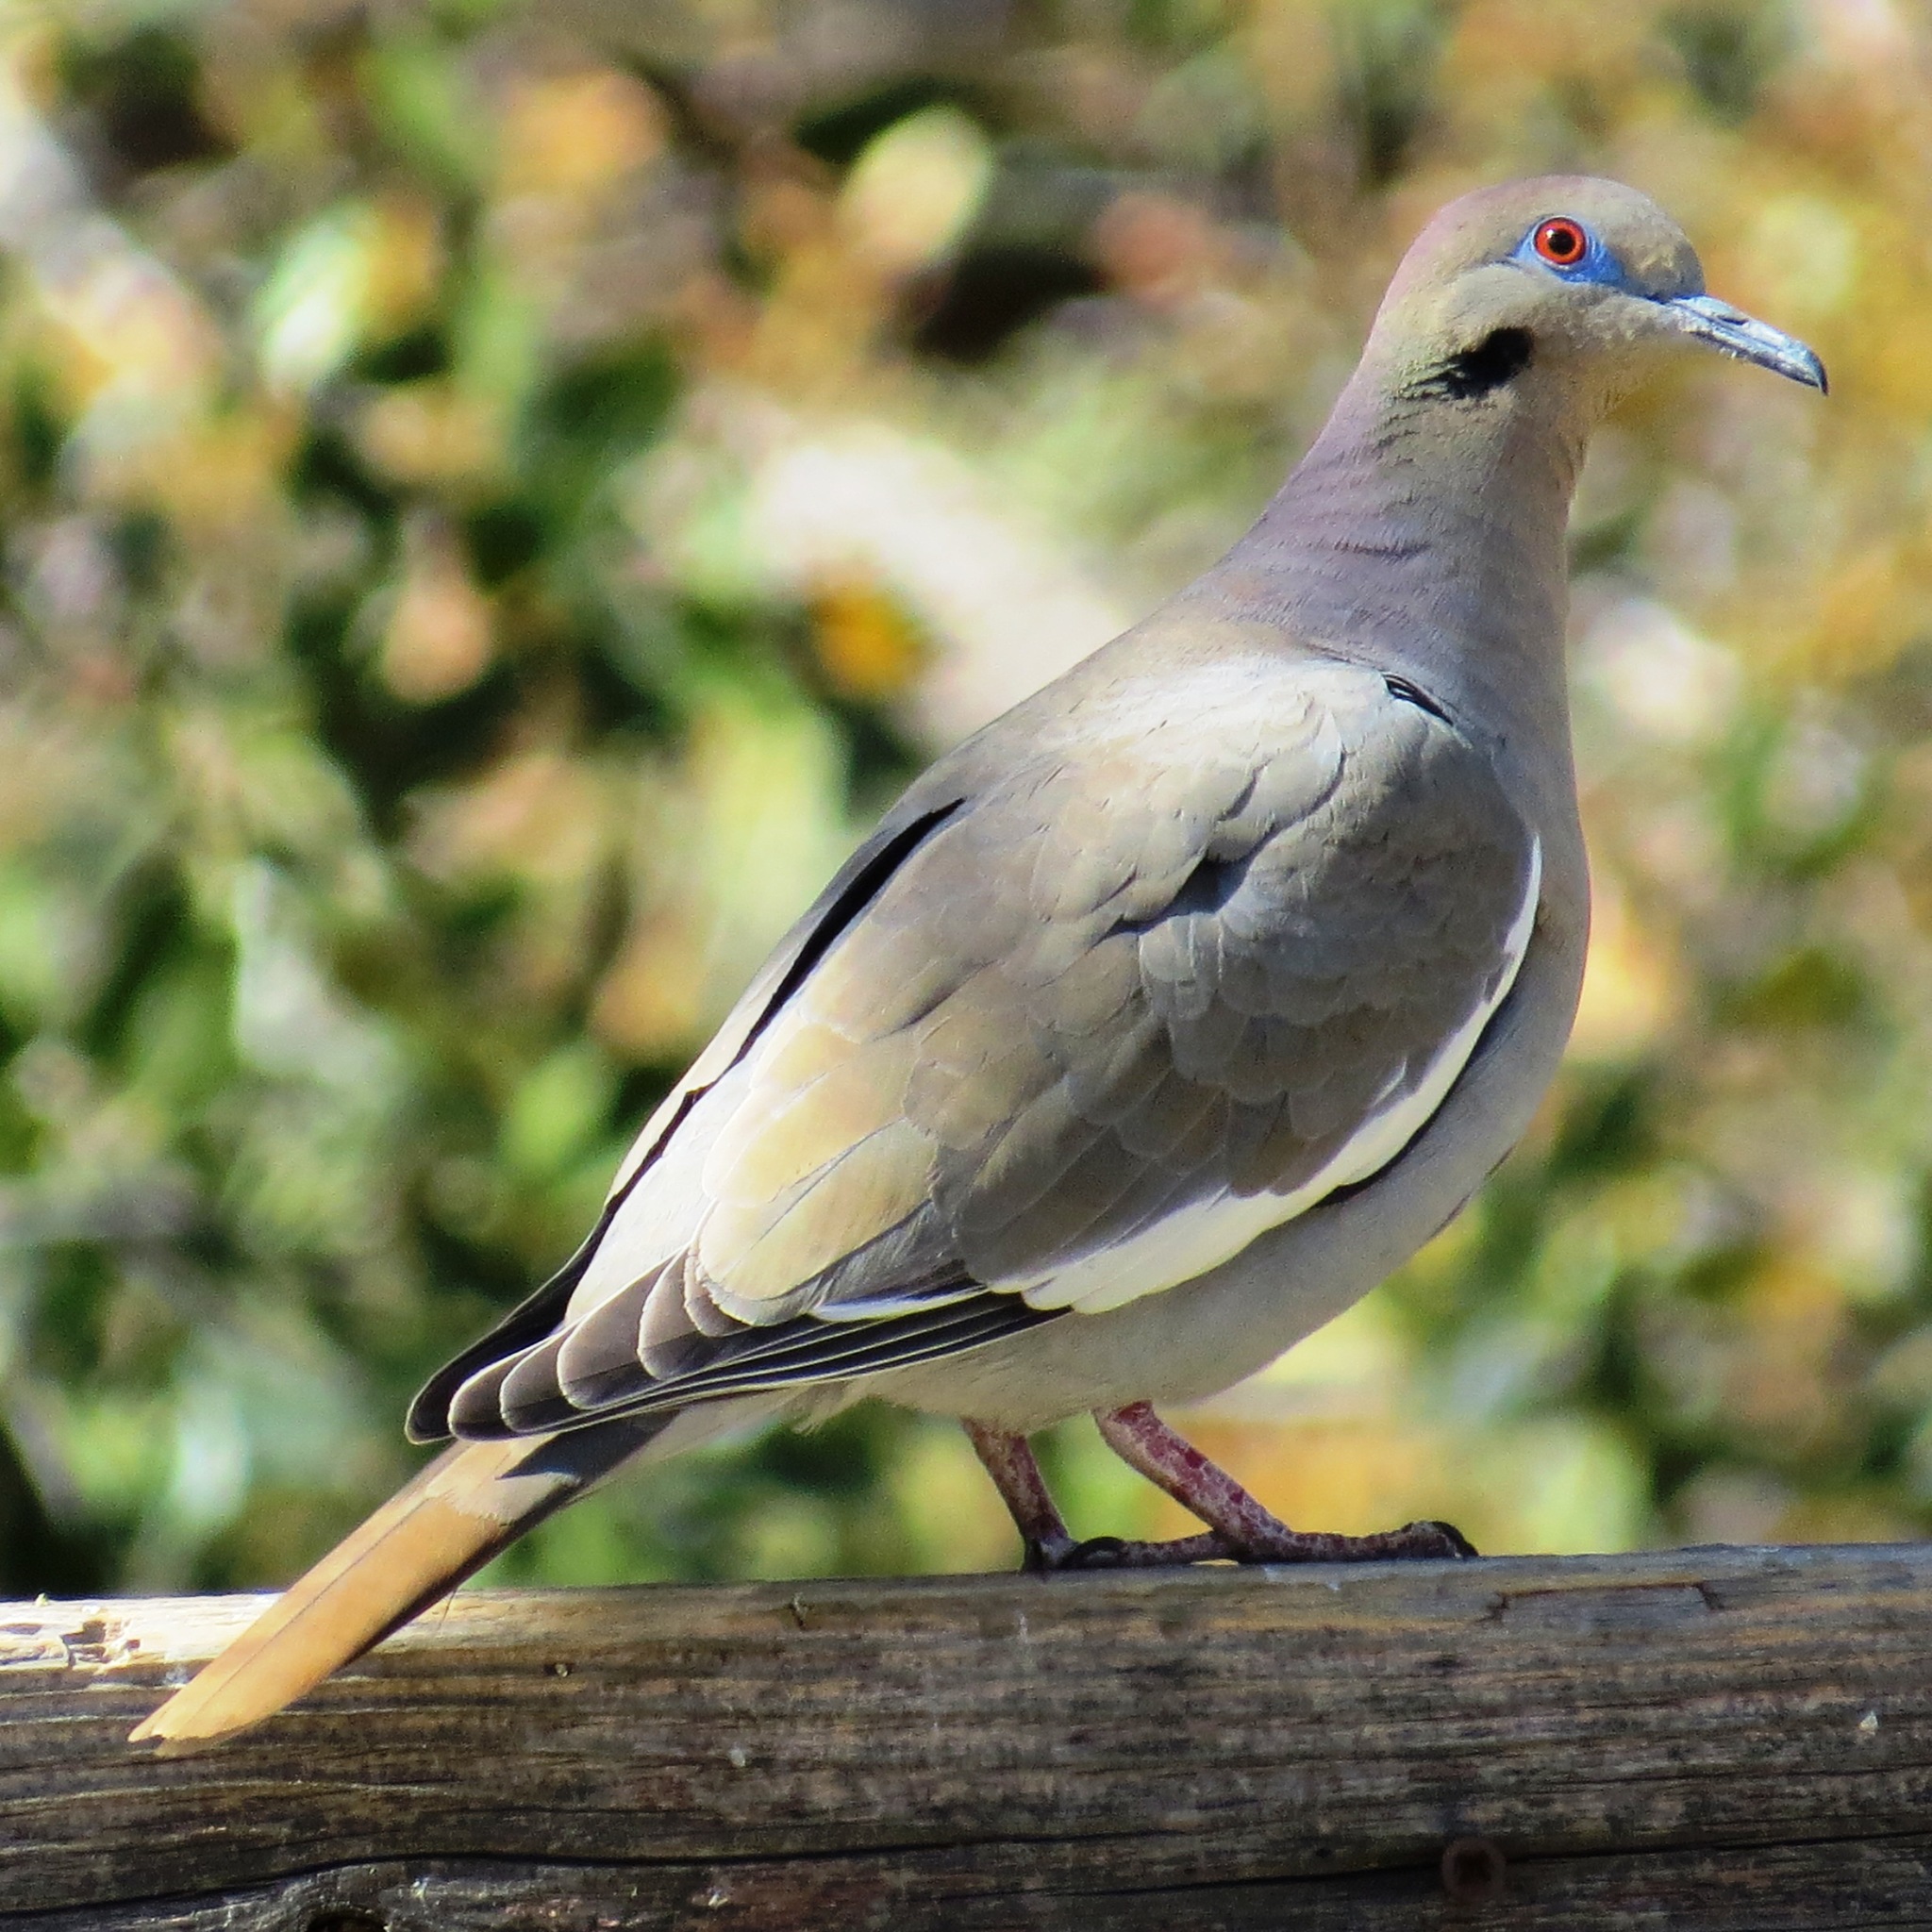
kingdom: Animalia
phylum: Chordata
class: Aves
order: Columbiformes
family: Columbidae
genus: Zenaida
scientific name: Zenaida asiatica
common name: White-winged dove
